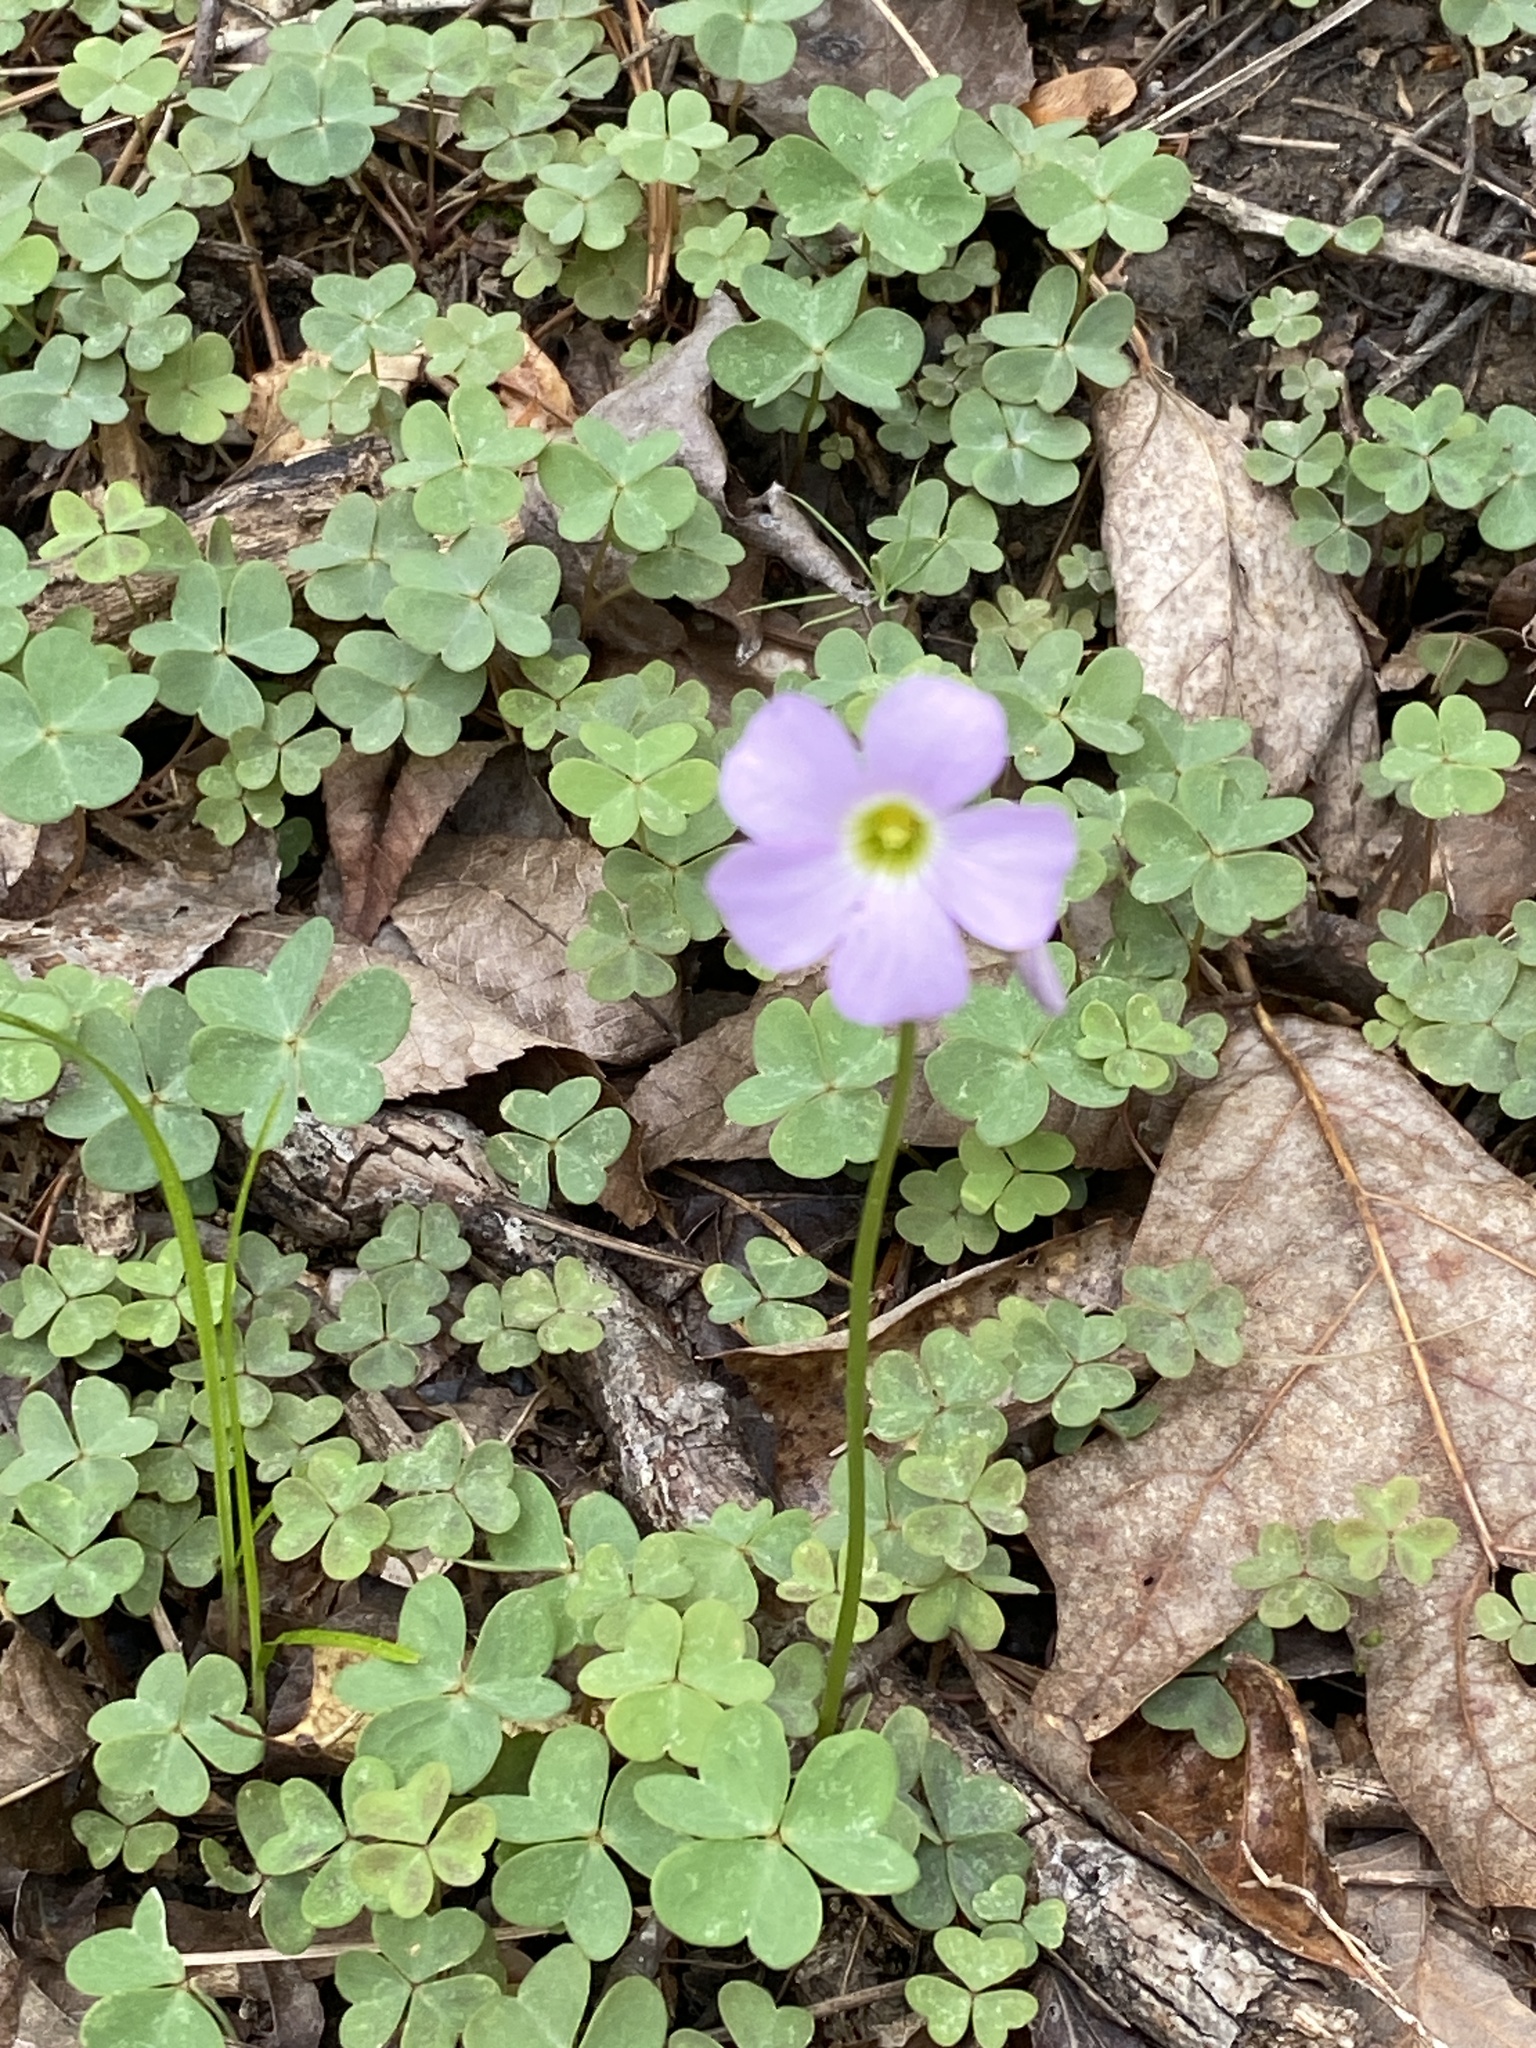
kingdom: Plantae
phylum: Tracheophyta
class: Magnoliopsida
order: Oxalidales
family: Oxalidaceae
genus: Oxalis
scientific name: Oxalis violacea
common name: Violet wood-sorrel
